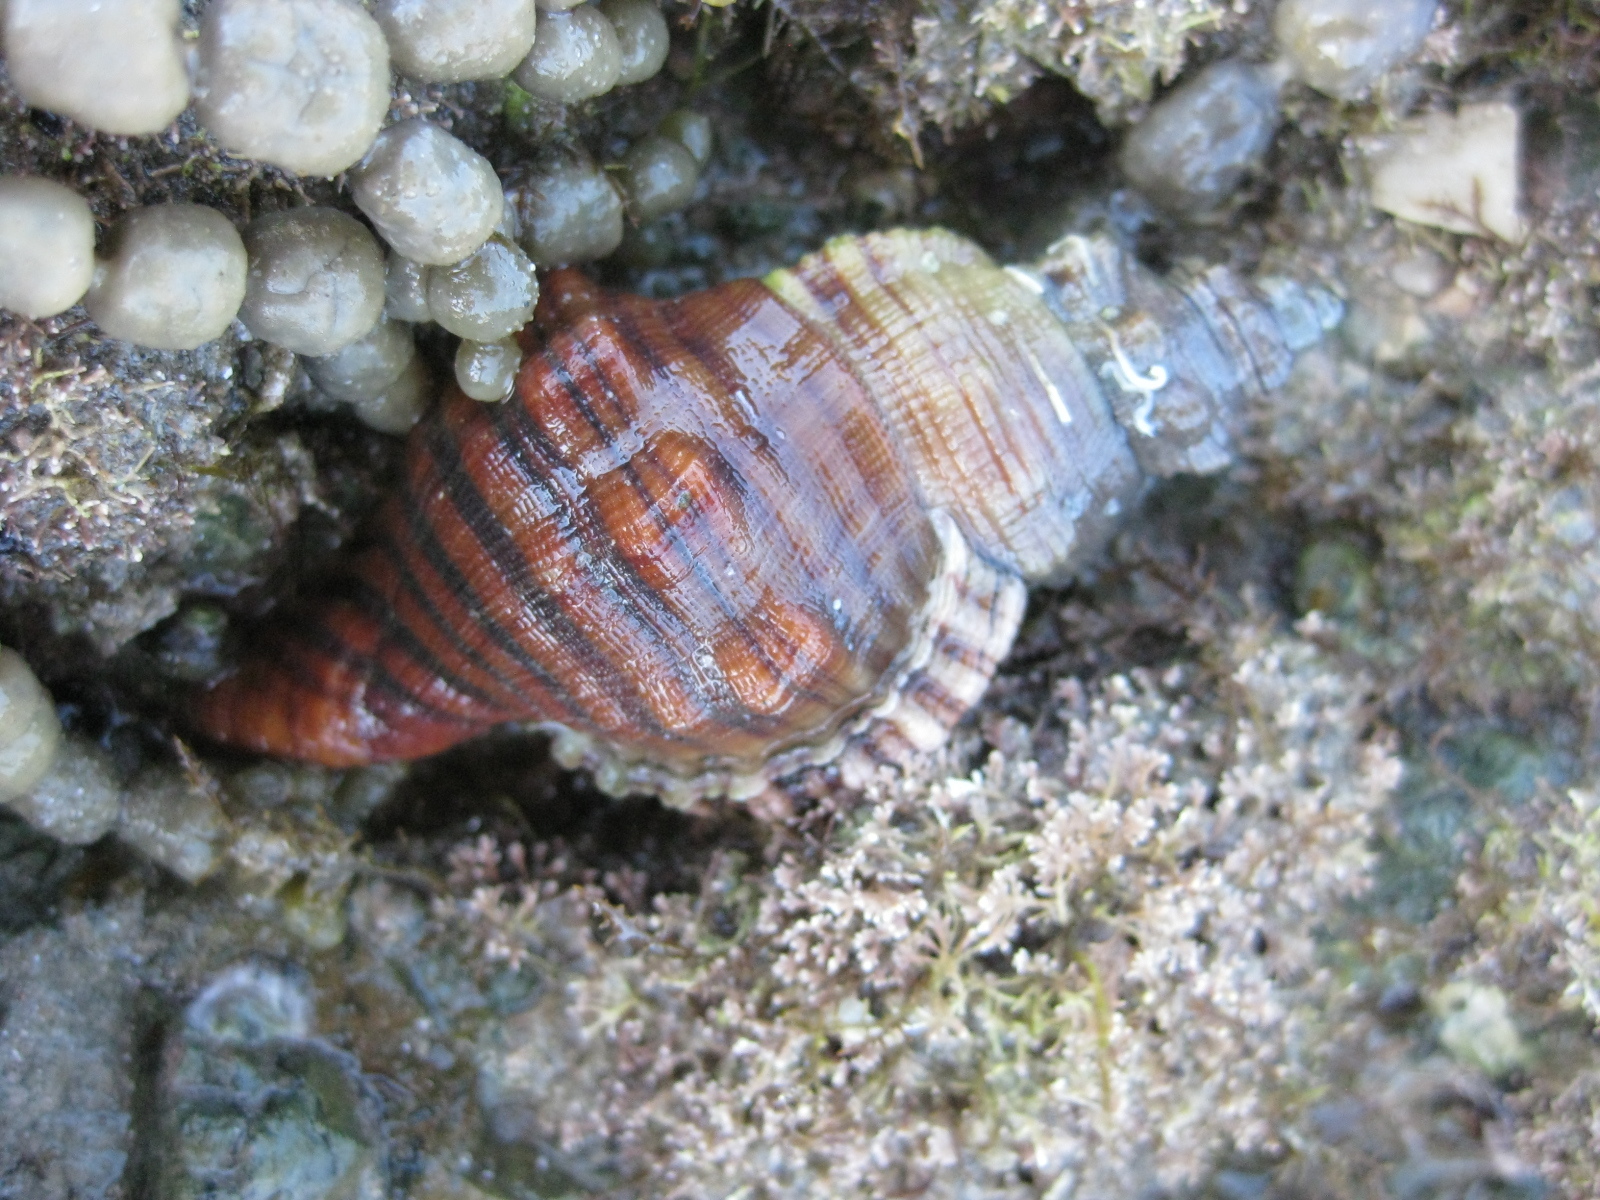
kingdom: Animalia
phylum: Mollusca
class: Gastropoda
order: Littorinimorpha
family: Cymatiidae
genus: Cabestana
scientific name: Cabestana spengleri
